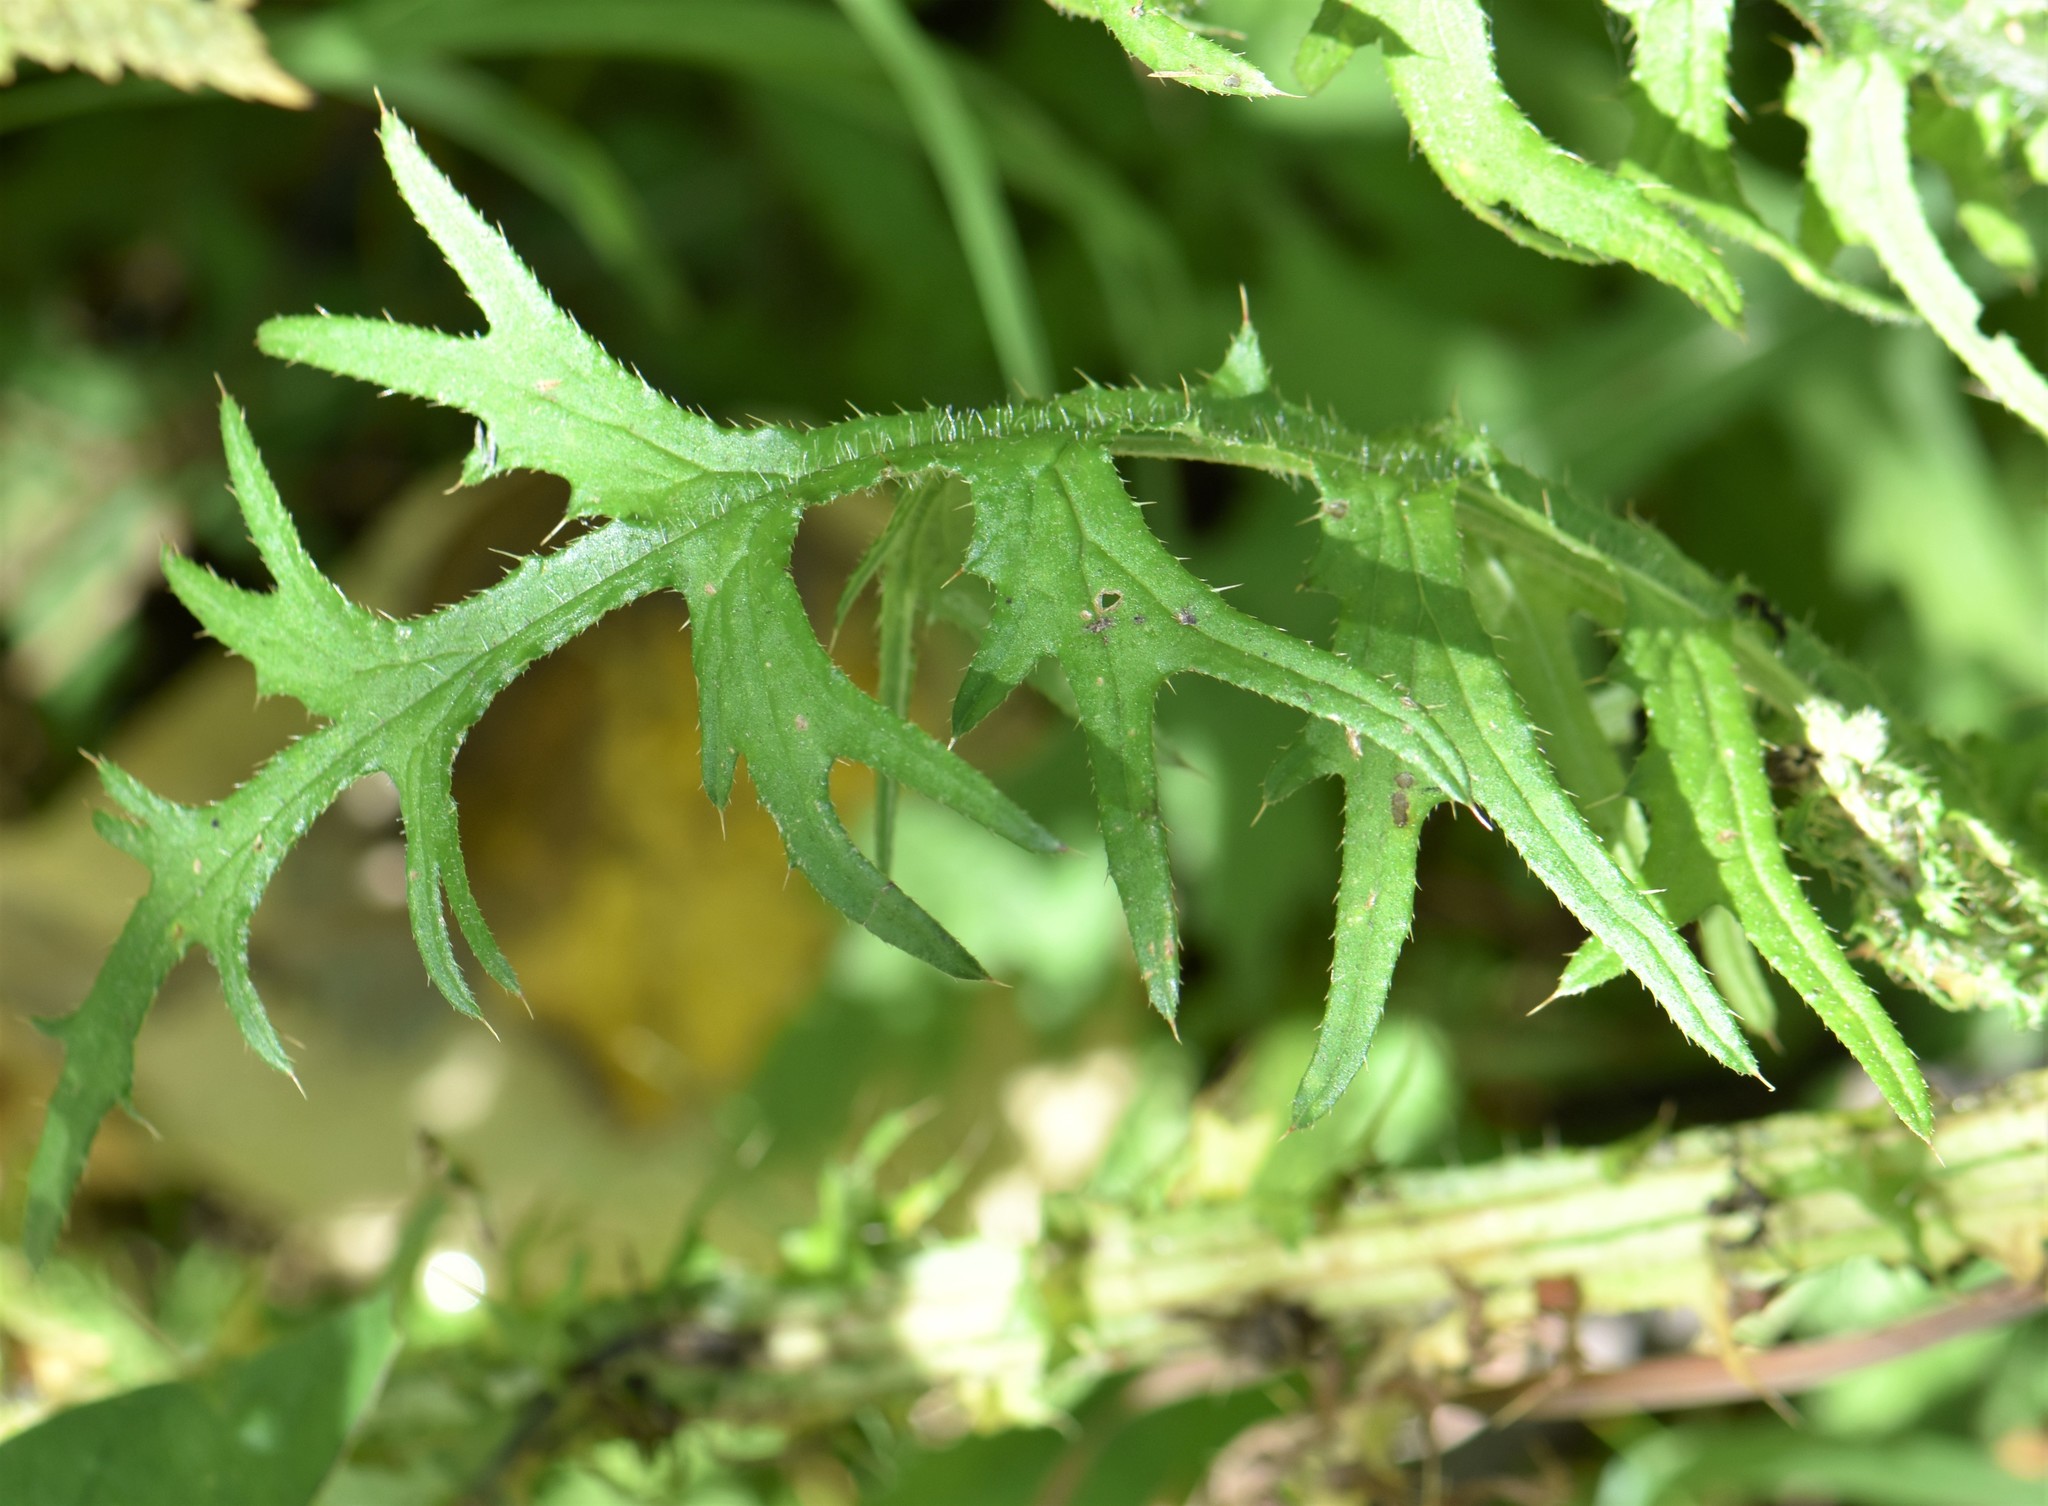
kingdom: Plantae
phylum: Tracheophyta
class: Magnoliopsida
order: Asterales
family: Asteraceae
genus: Cirsium
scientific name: Cirsium palustre
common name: Marsh thistle
